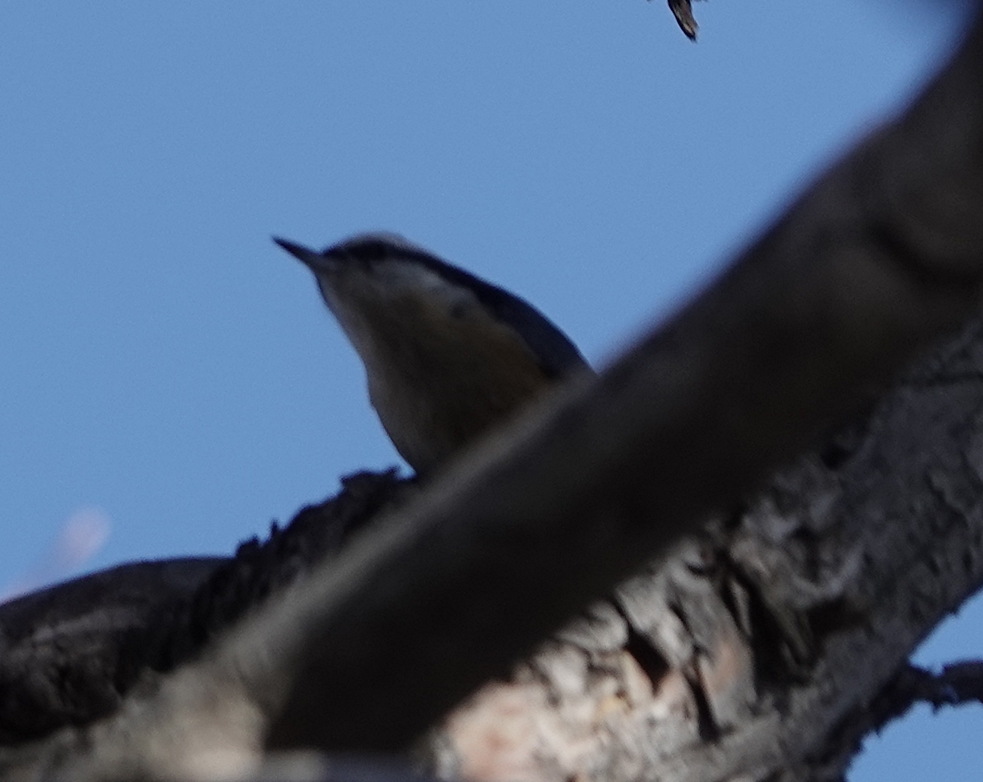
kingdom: Animalia
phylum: Chordata
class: Aves
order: Passeriformes
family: Sittidae
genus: Sitta
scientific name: Sitta canadensis
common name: Red-breasted nuthatch
